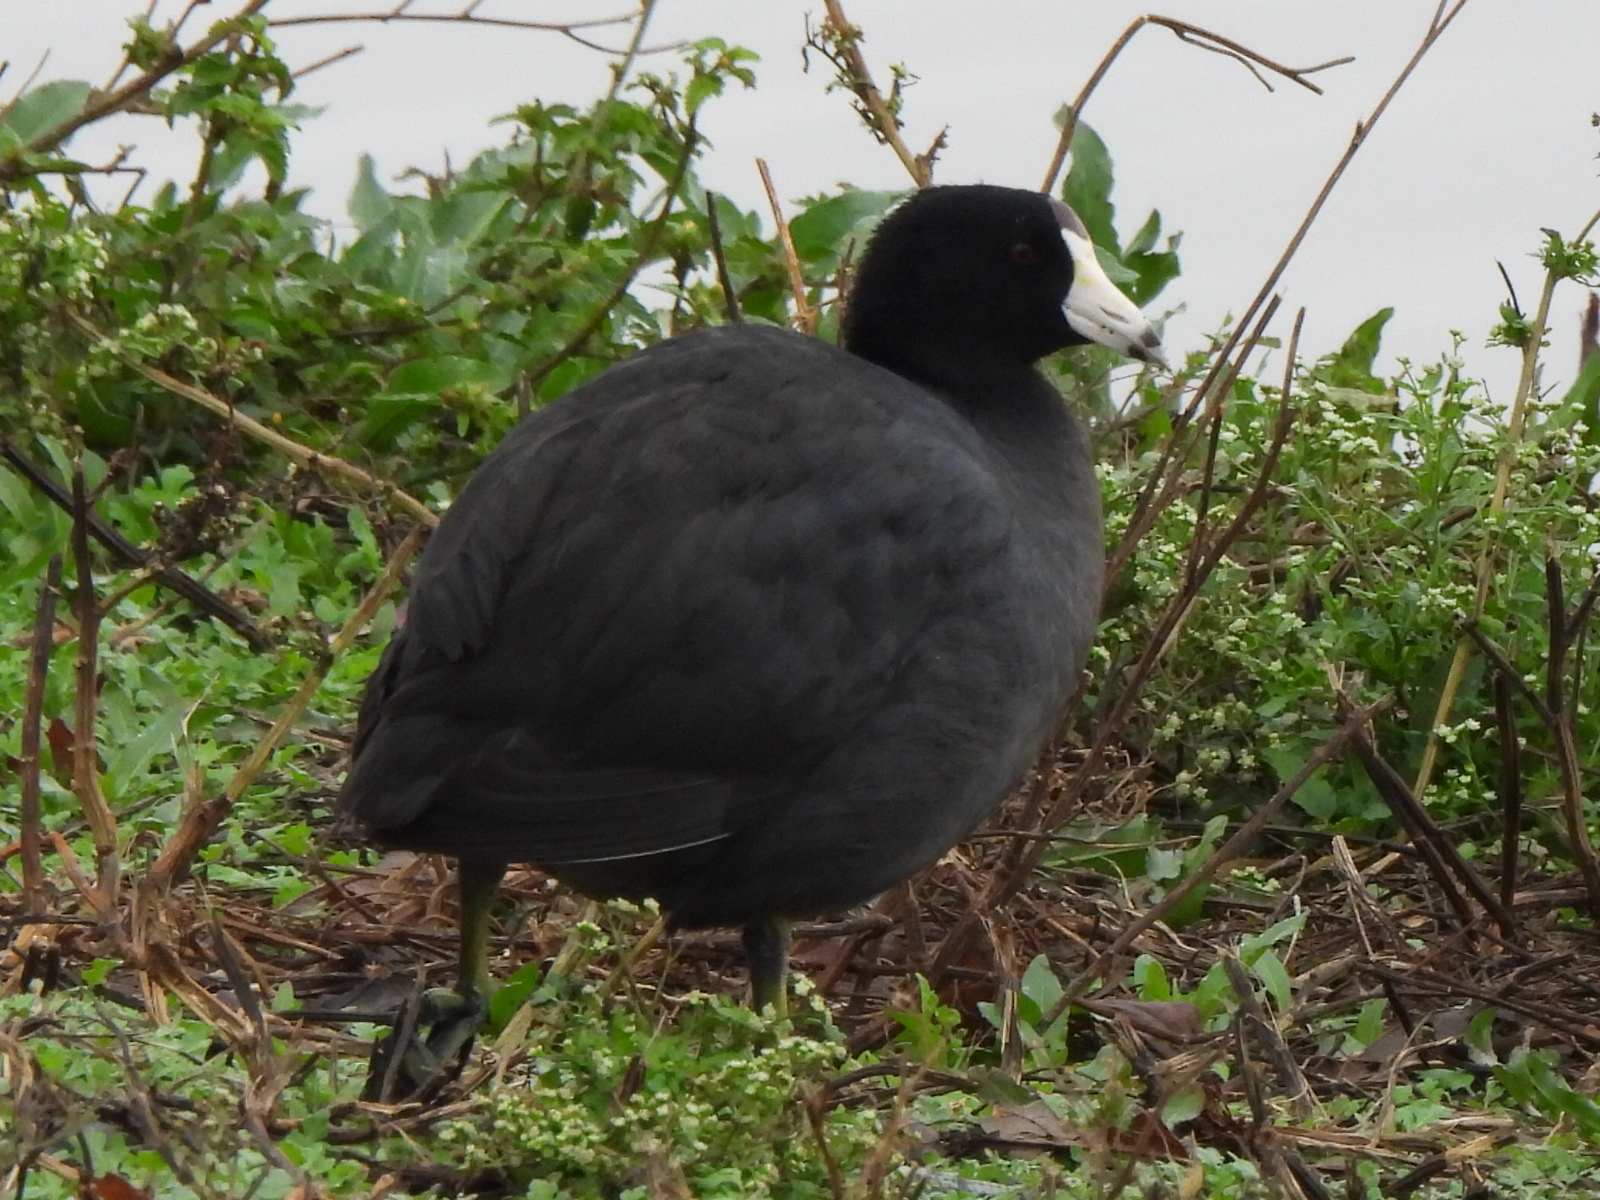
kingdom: Animalia
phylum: Chordata
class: Aves
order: Gruiformes
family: Rallidae
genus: Fulica
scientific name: Fulica americana
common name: American coot
